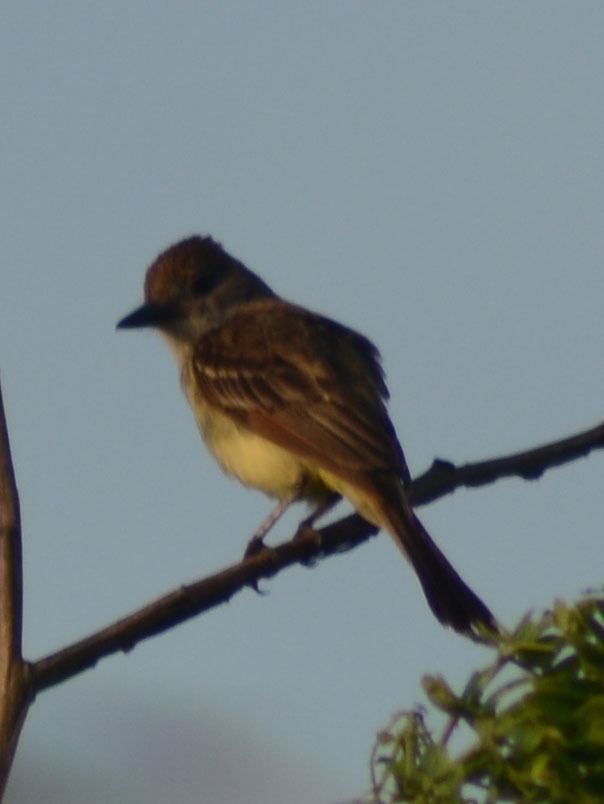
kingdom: Animalia
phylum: Chordata
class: Aves
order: Passeriformes
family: Tyrannidae
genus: Myiarchus
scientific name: Myiarchus tyrannulus
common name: Brown-crested flycatcher
